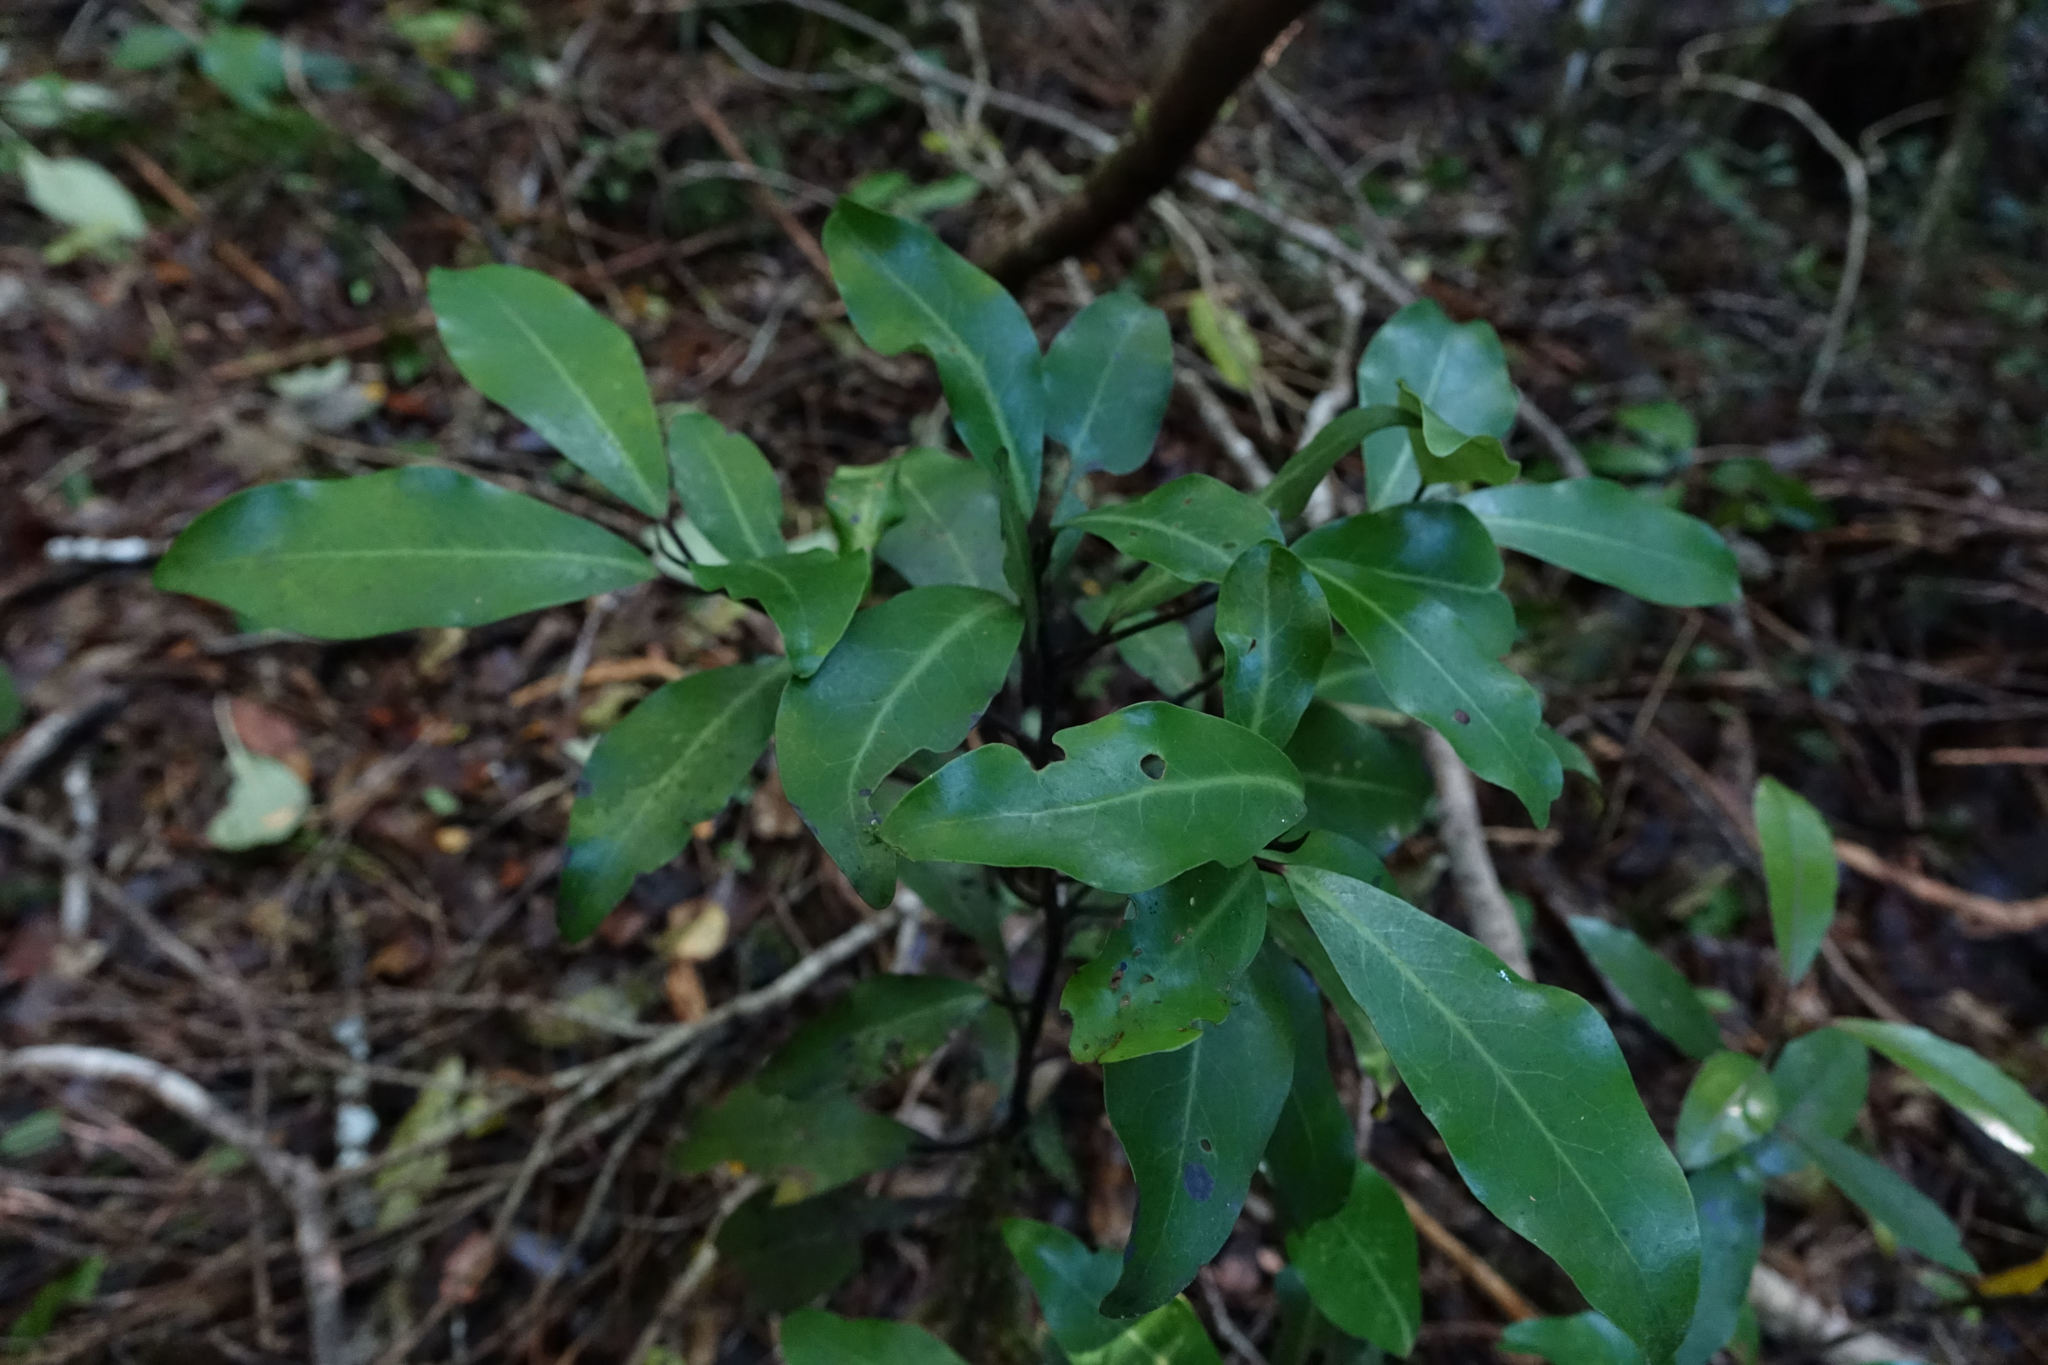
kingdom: Plantae
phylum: Tracheophyta
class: Magnoliopsida
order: Canellales
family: Winteraceae
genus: Pseudowintera
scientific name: Pseudowintera axillaris
